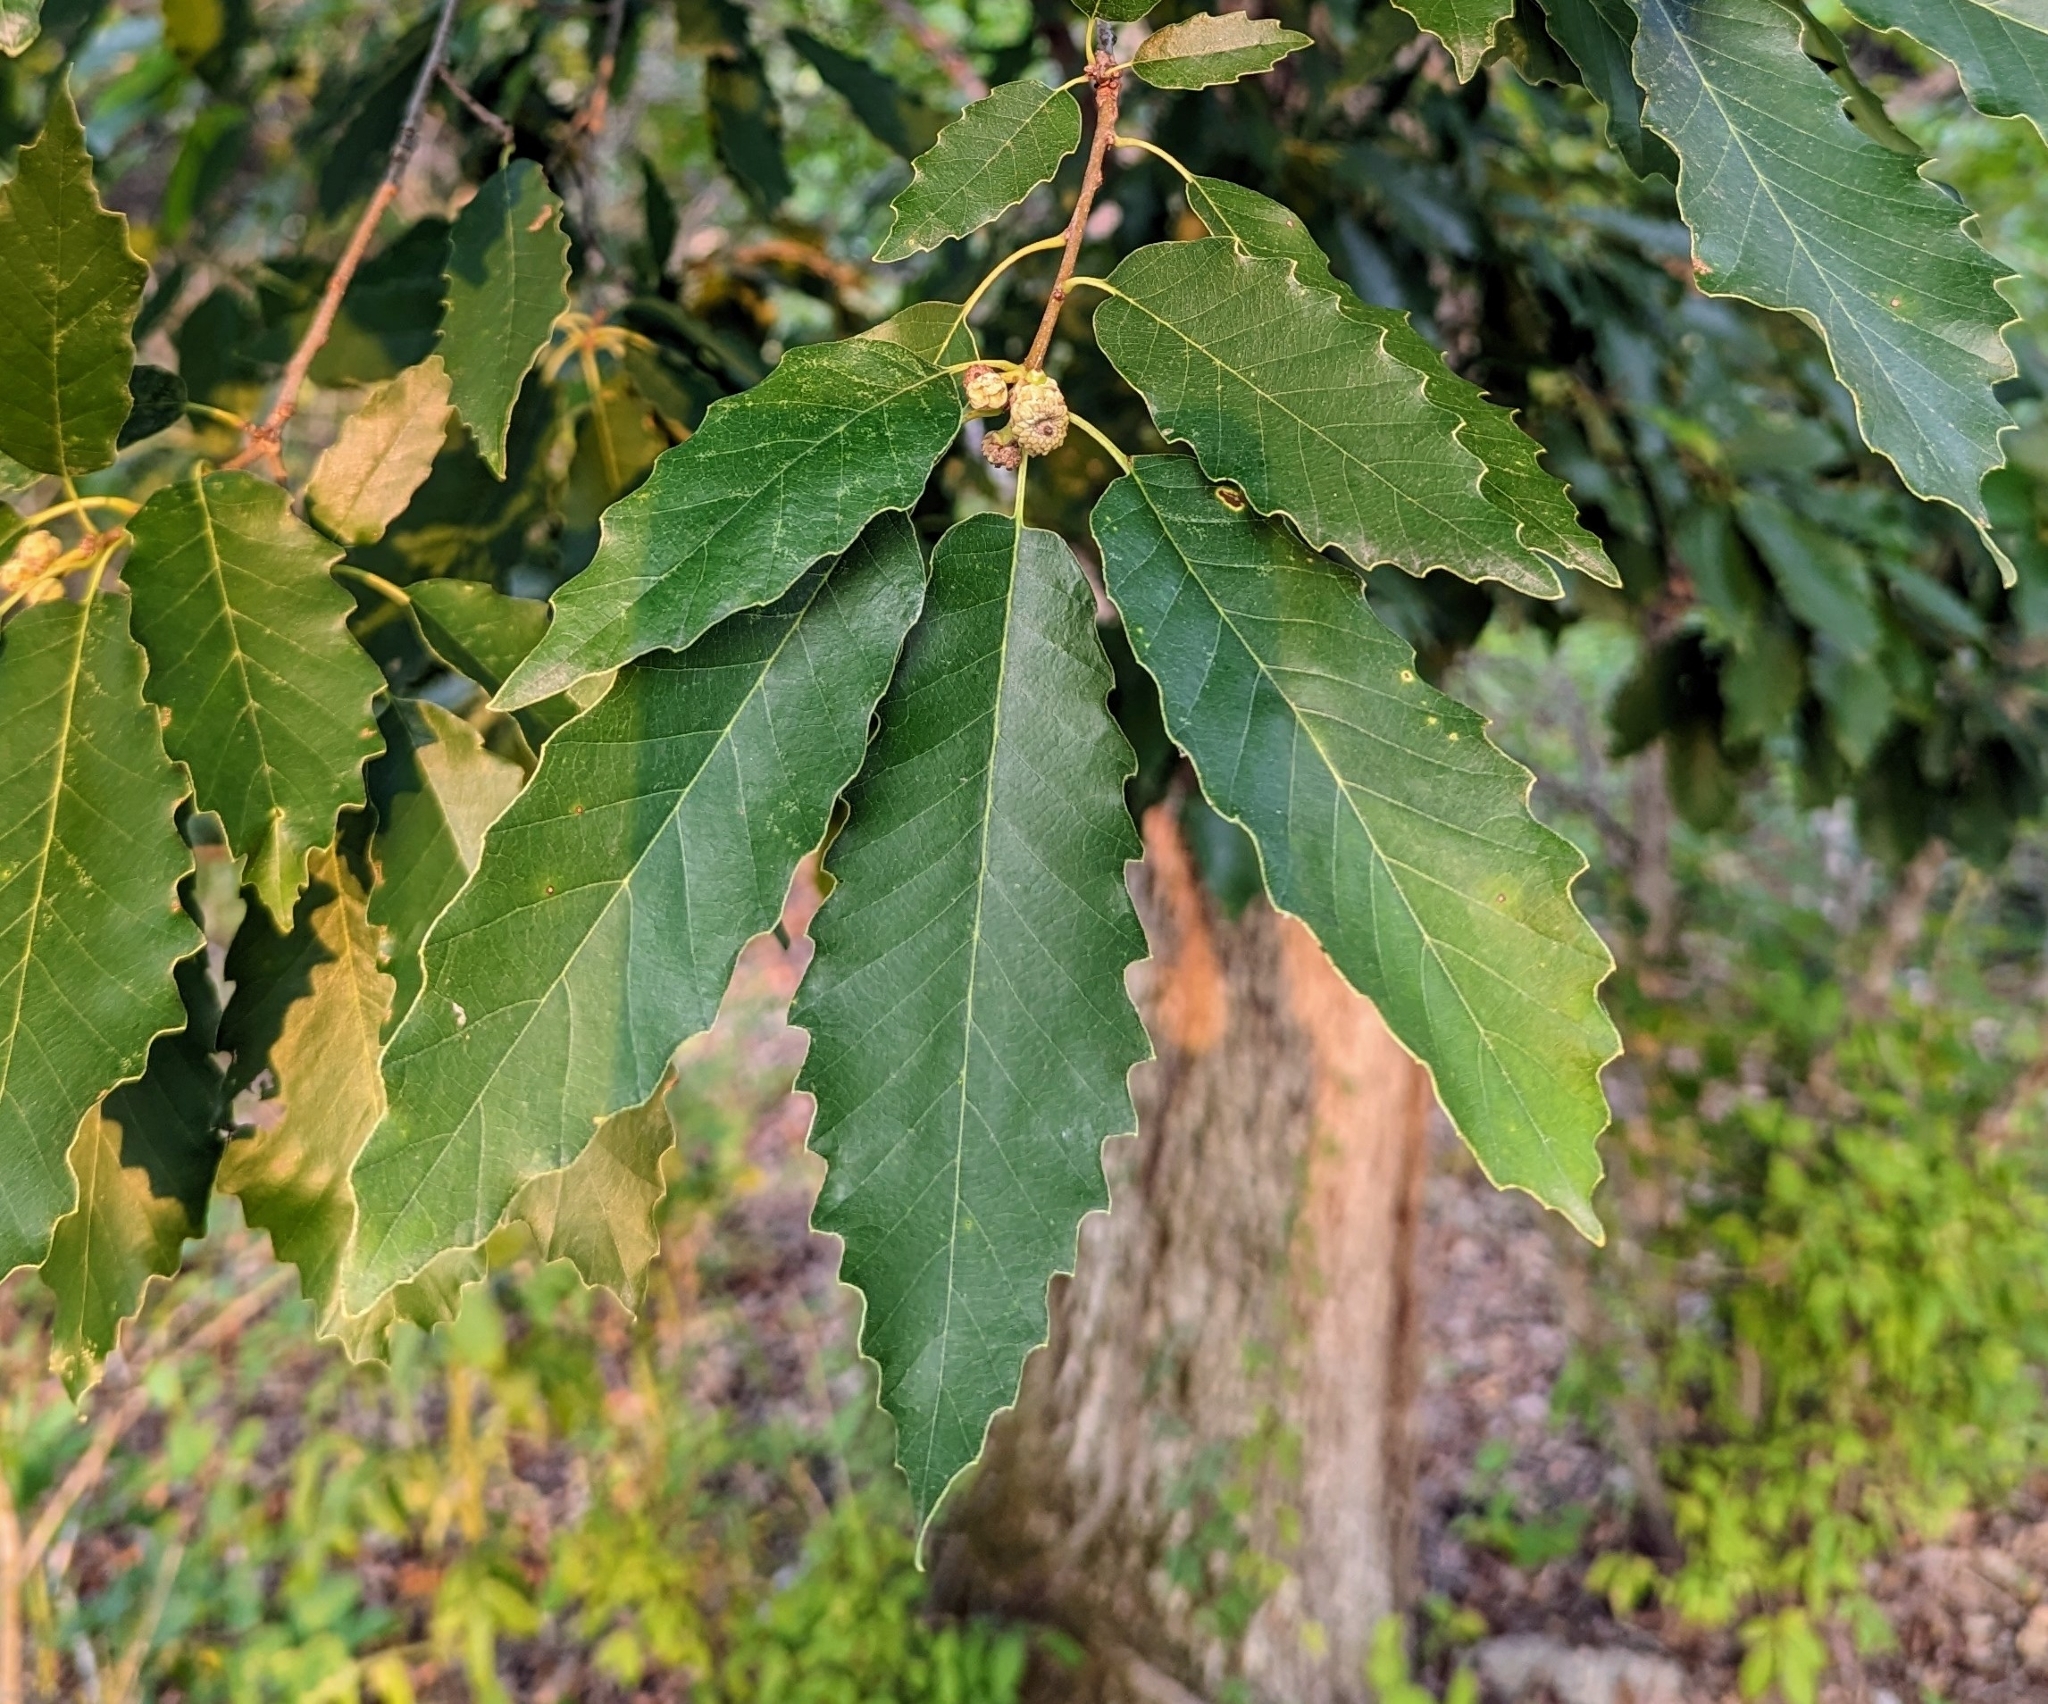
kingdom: Plantae
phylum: Tracheophyta
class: Magnoliopsida
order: Fagales
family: Fagaceae
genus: Quercus
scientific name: Quercus muehlenbergii
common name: Chinkapin oak
